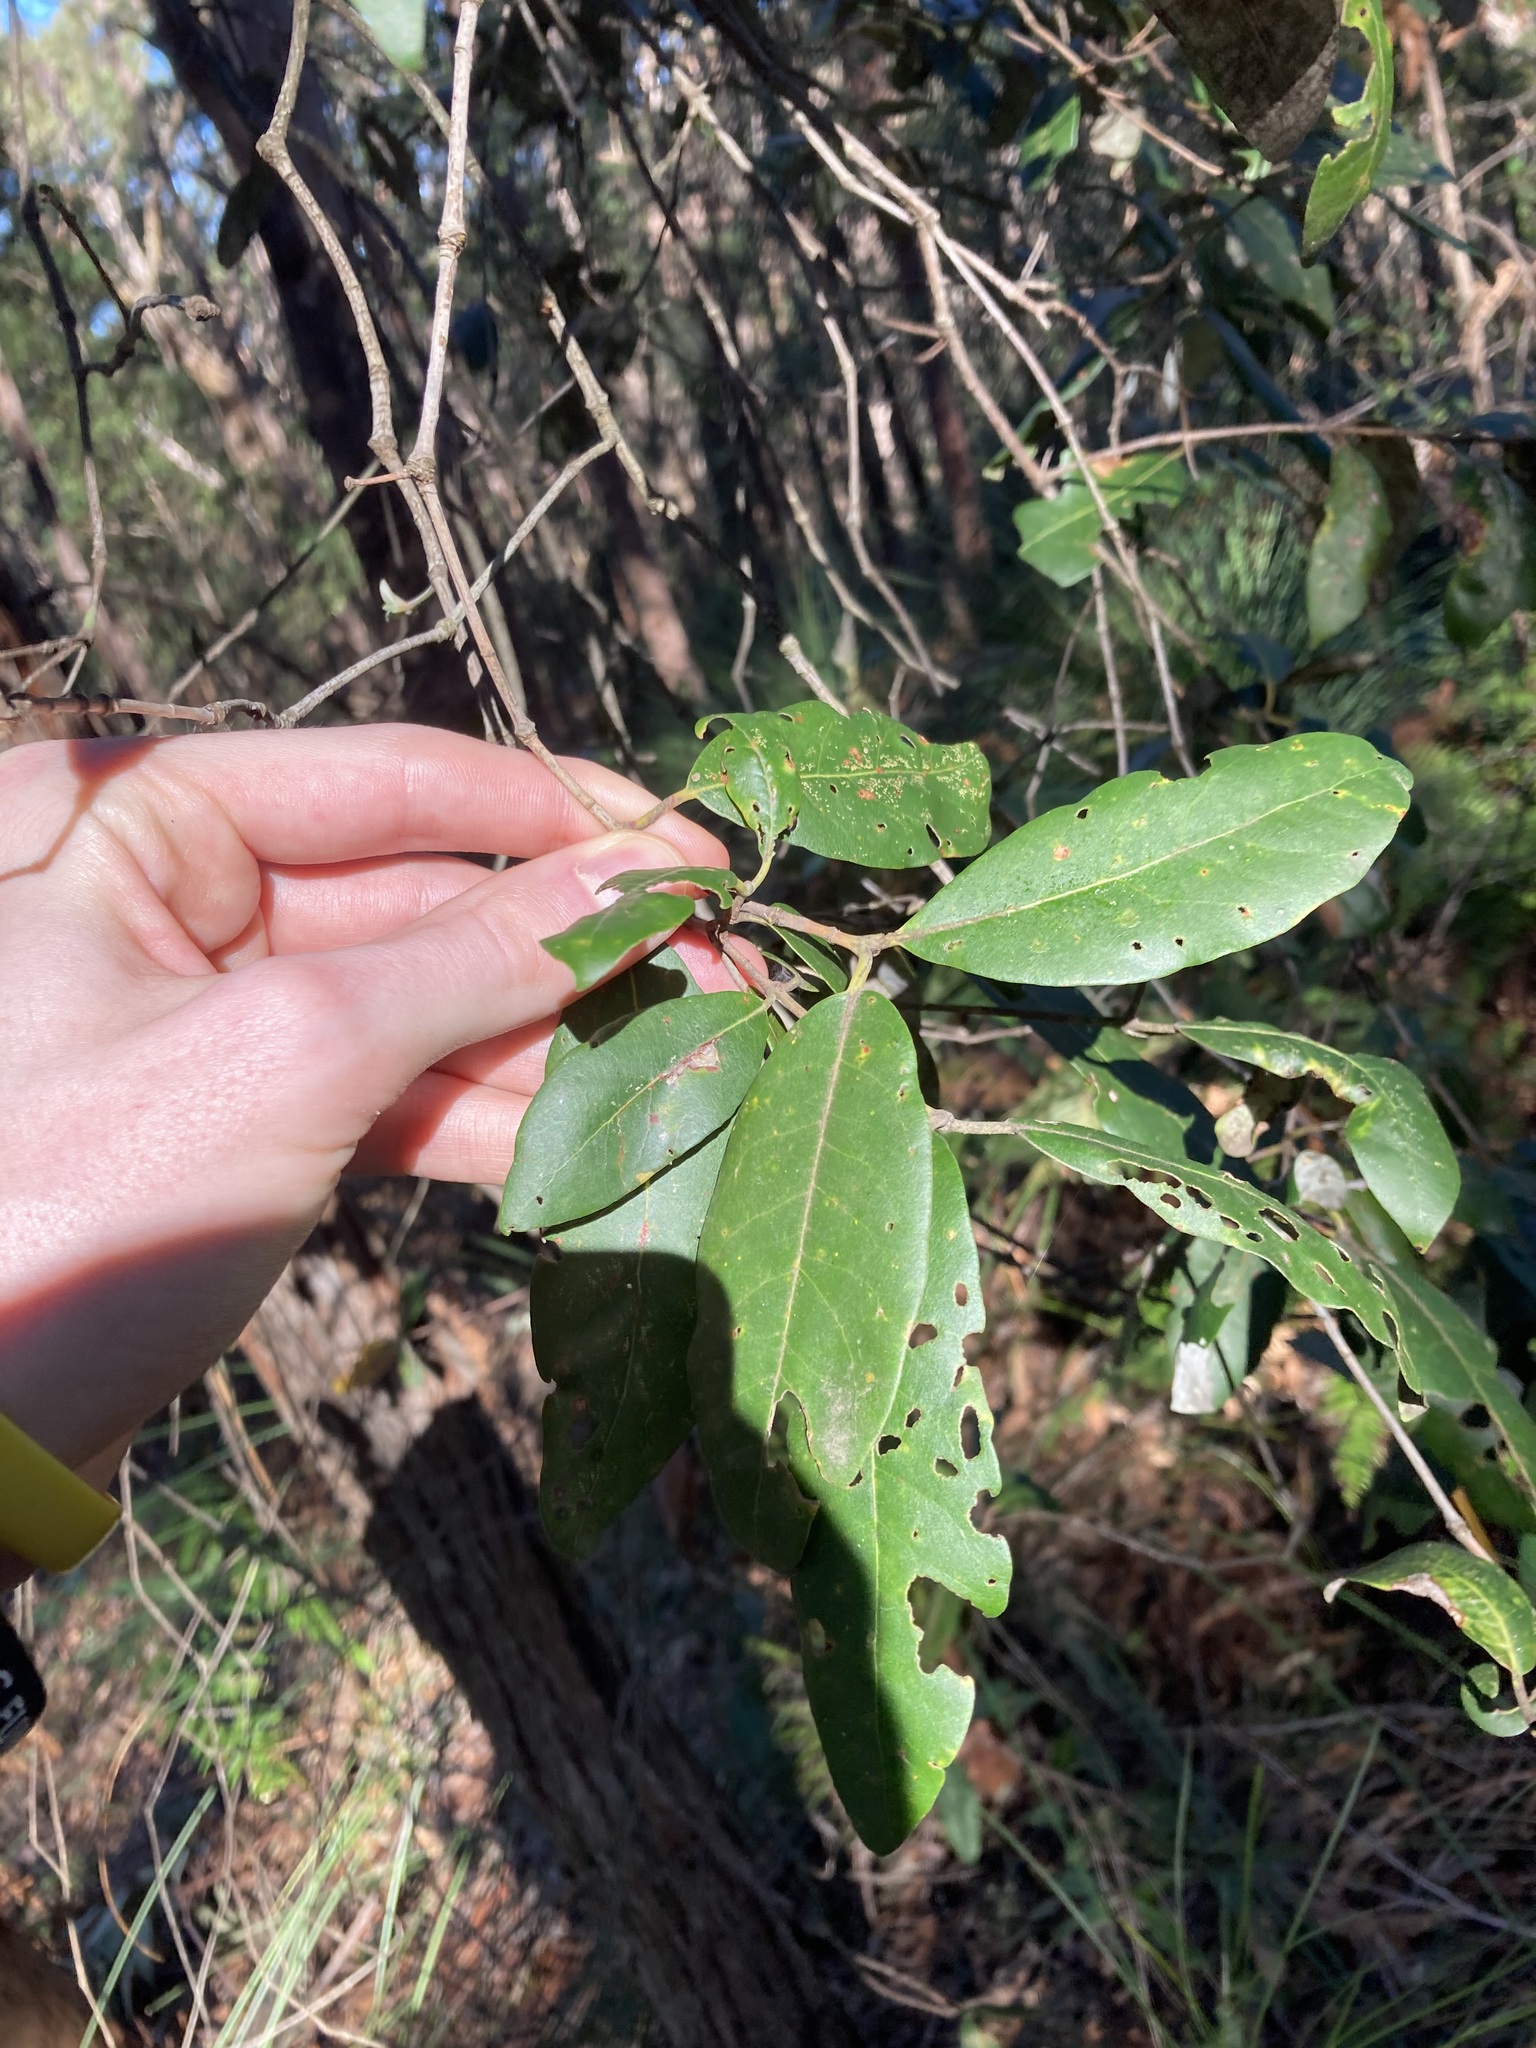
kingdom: Plantae
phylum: Tracheophyta
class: Magnoliopsida
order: Myrtales
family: Myrtaceae
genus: Syncarpia
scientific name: Syncarpia glomulifera
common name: Turpentine tree
